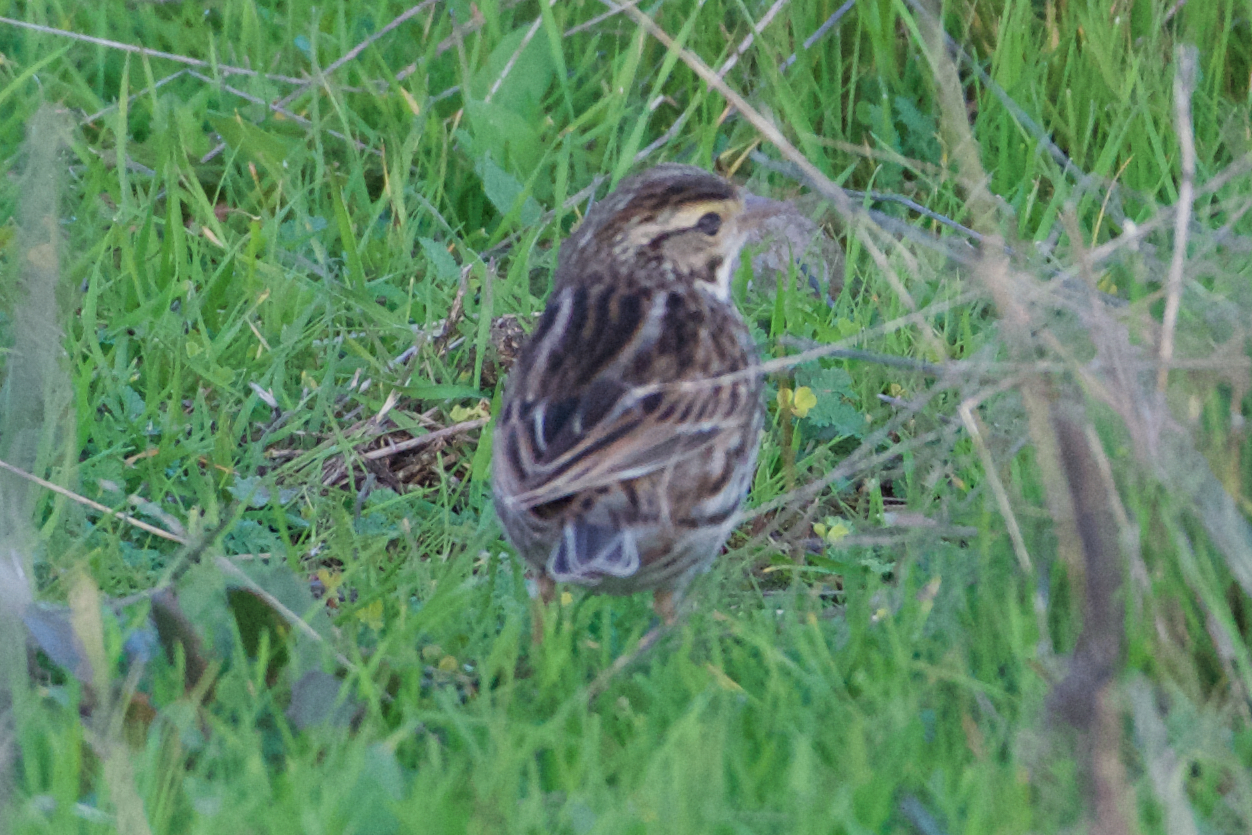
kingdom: Animalia
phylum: Chordata
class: Aves
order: Passeriformes
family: Passerellidae
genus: Passerculus
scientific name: Passerculus sandwichensis
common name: Savannah sparrow
